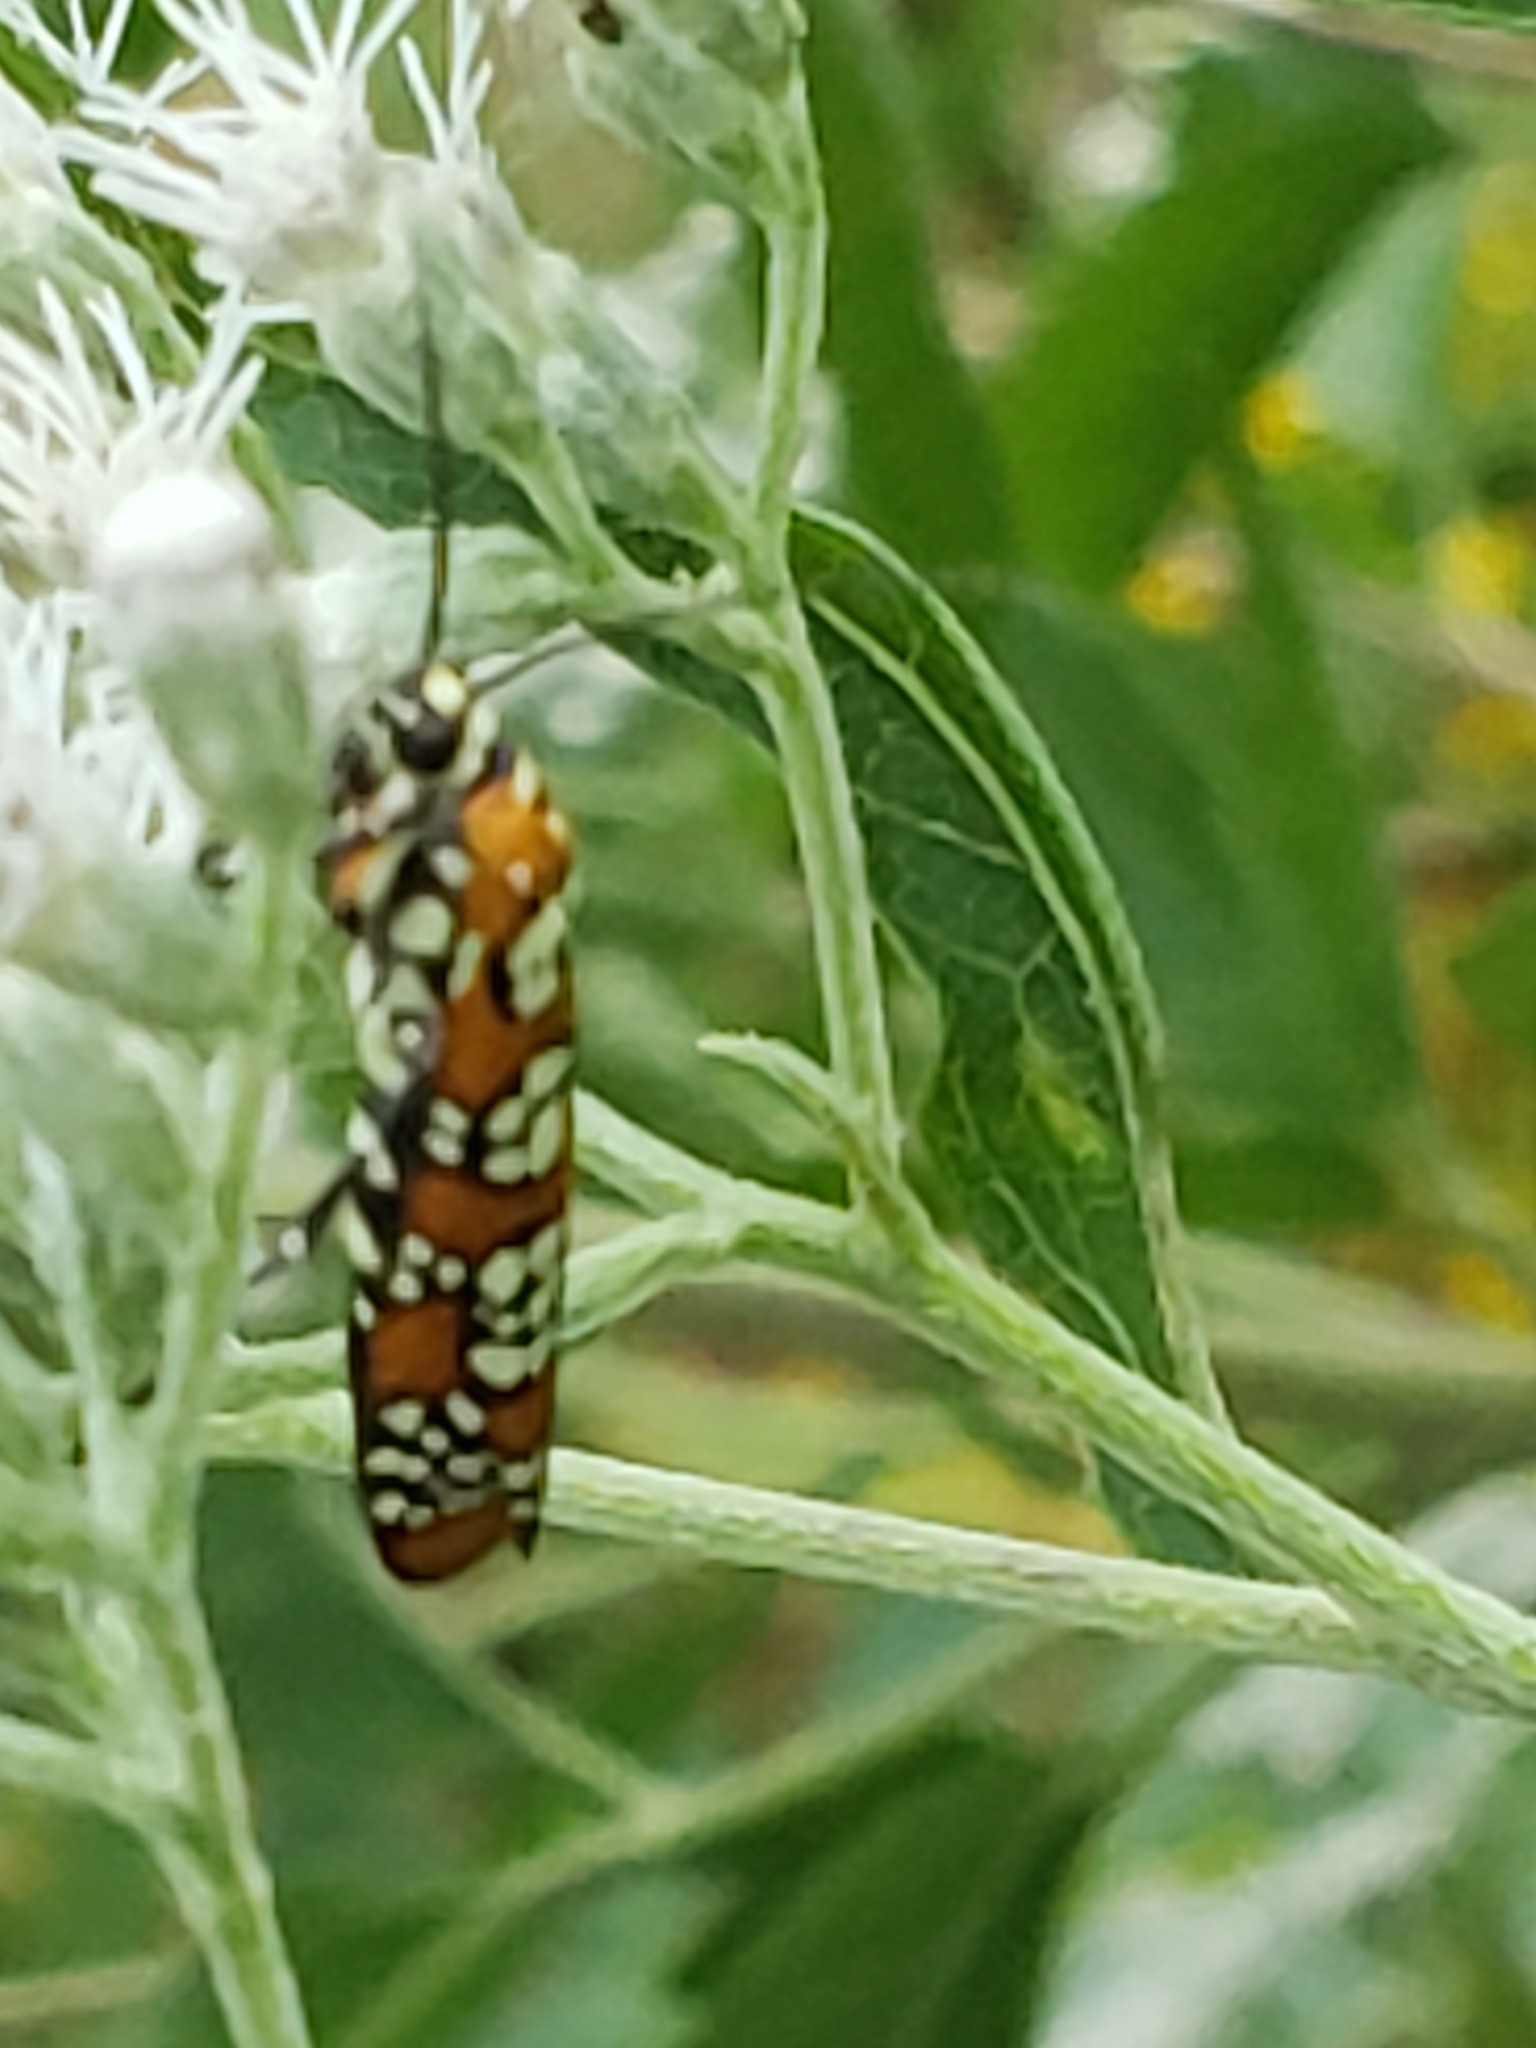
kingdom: Animalia
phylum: Arthropoda
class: Insecta
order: Lepidoptera
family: Attevidae
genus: Atteva
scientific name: Atteva punctella
